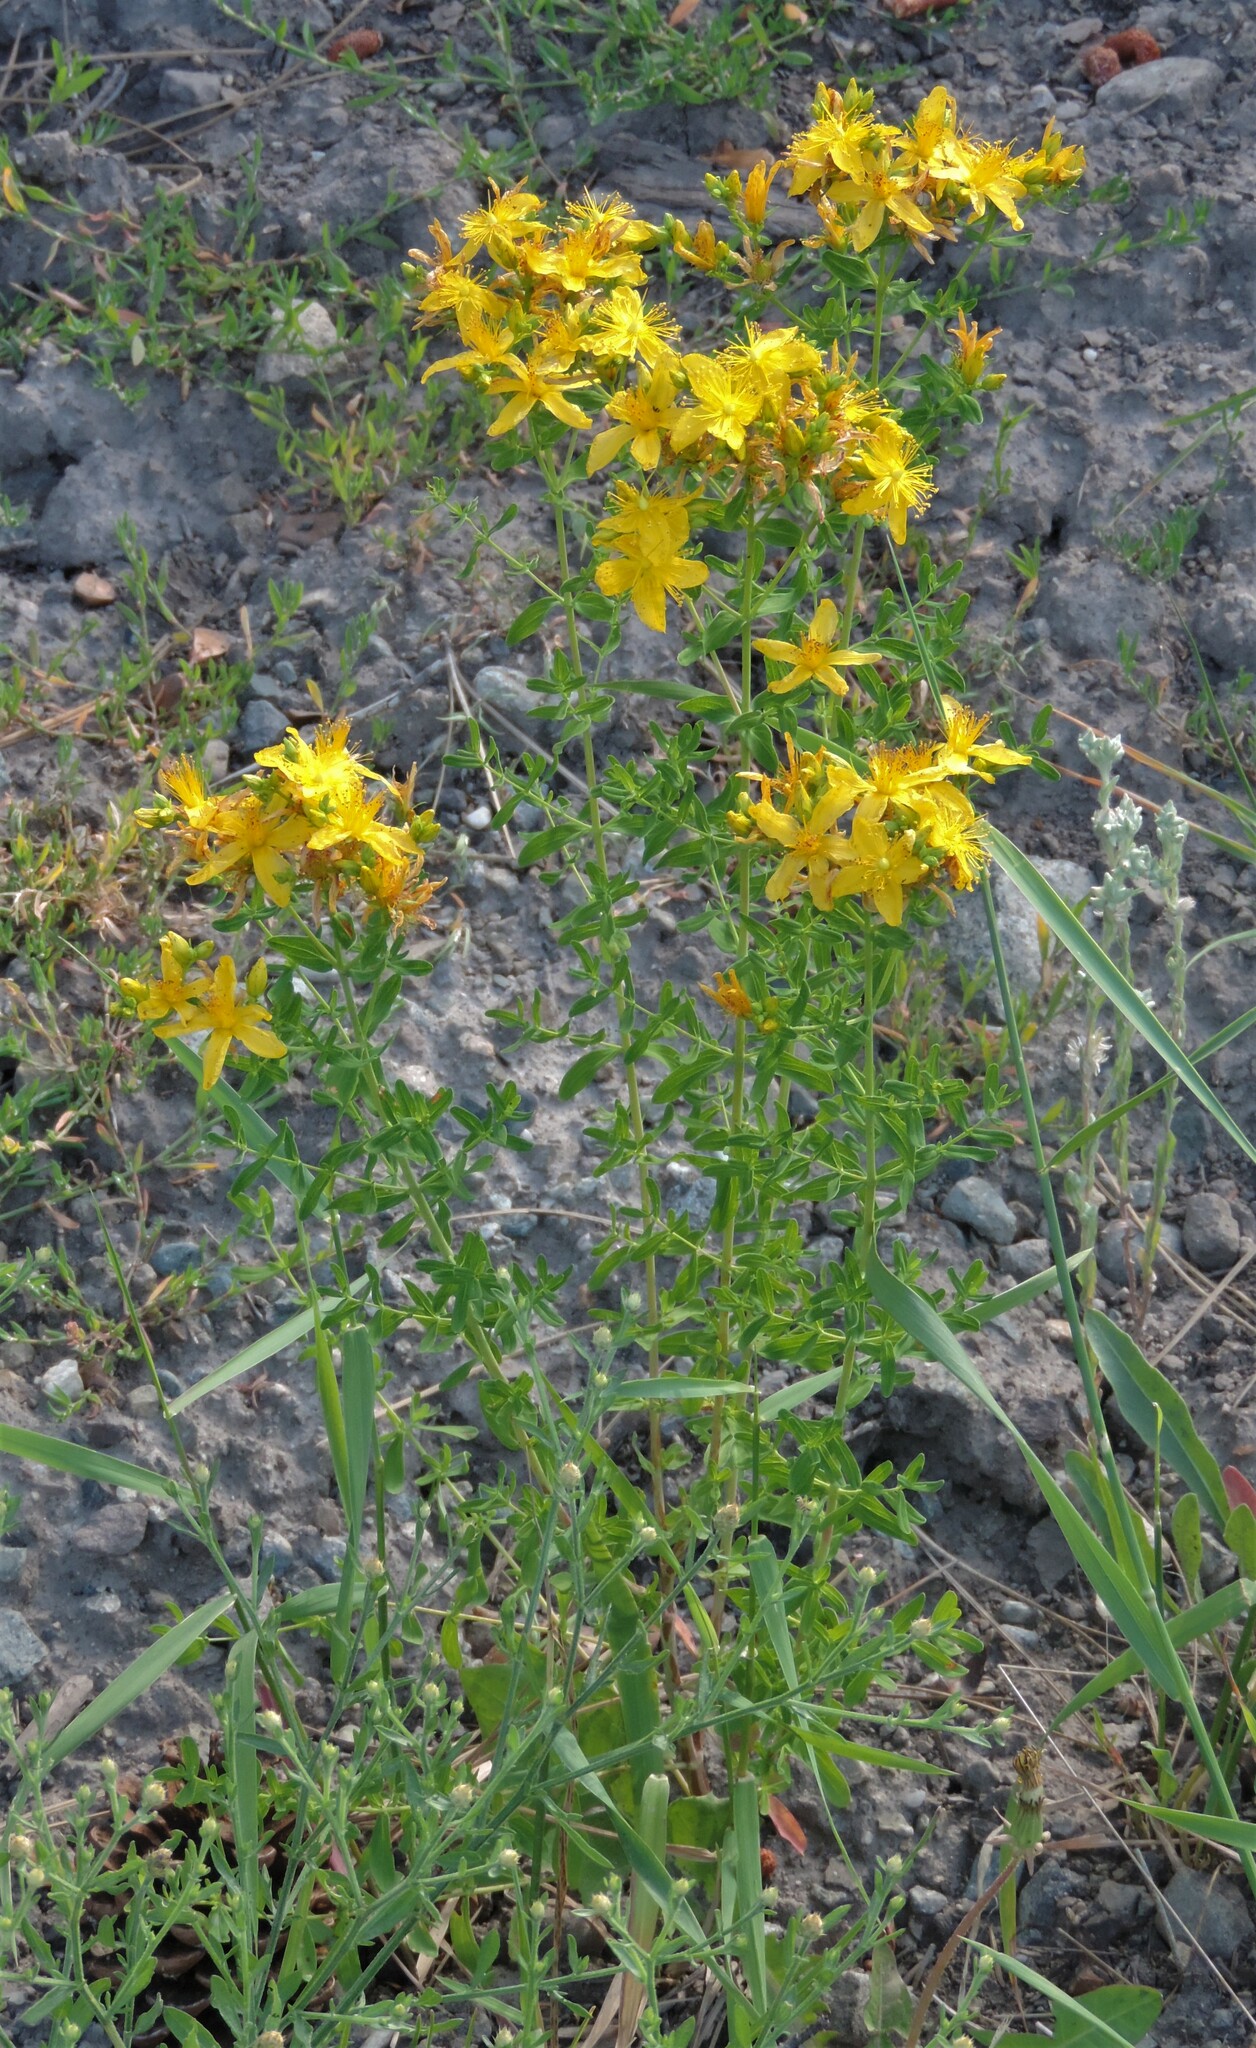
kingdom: Plantae
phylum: Tracheophyta
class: Magnoliopsida
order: Malpighiales
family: Hypericaceae
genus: Hypericum
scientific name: Hypericum perforatum
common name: Common st. johnswort
